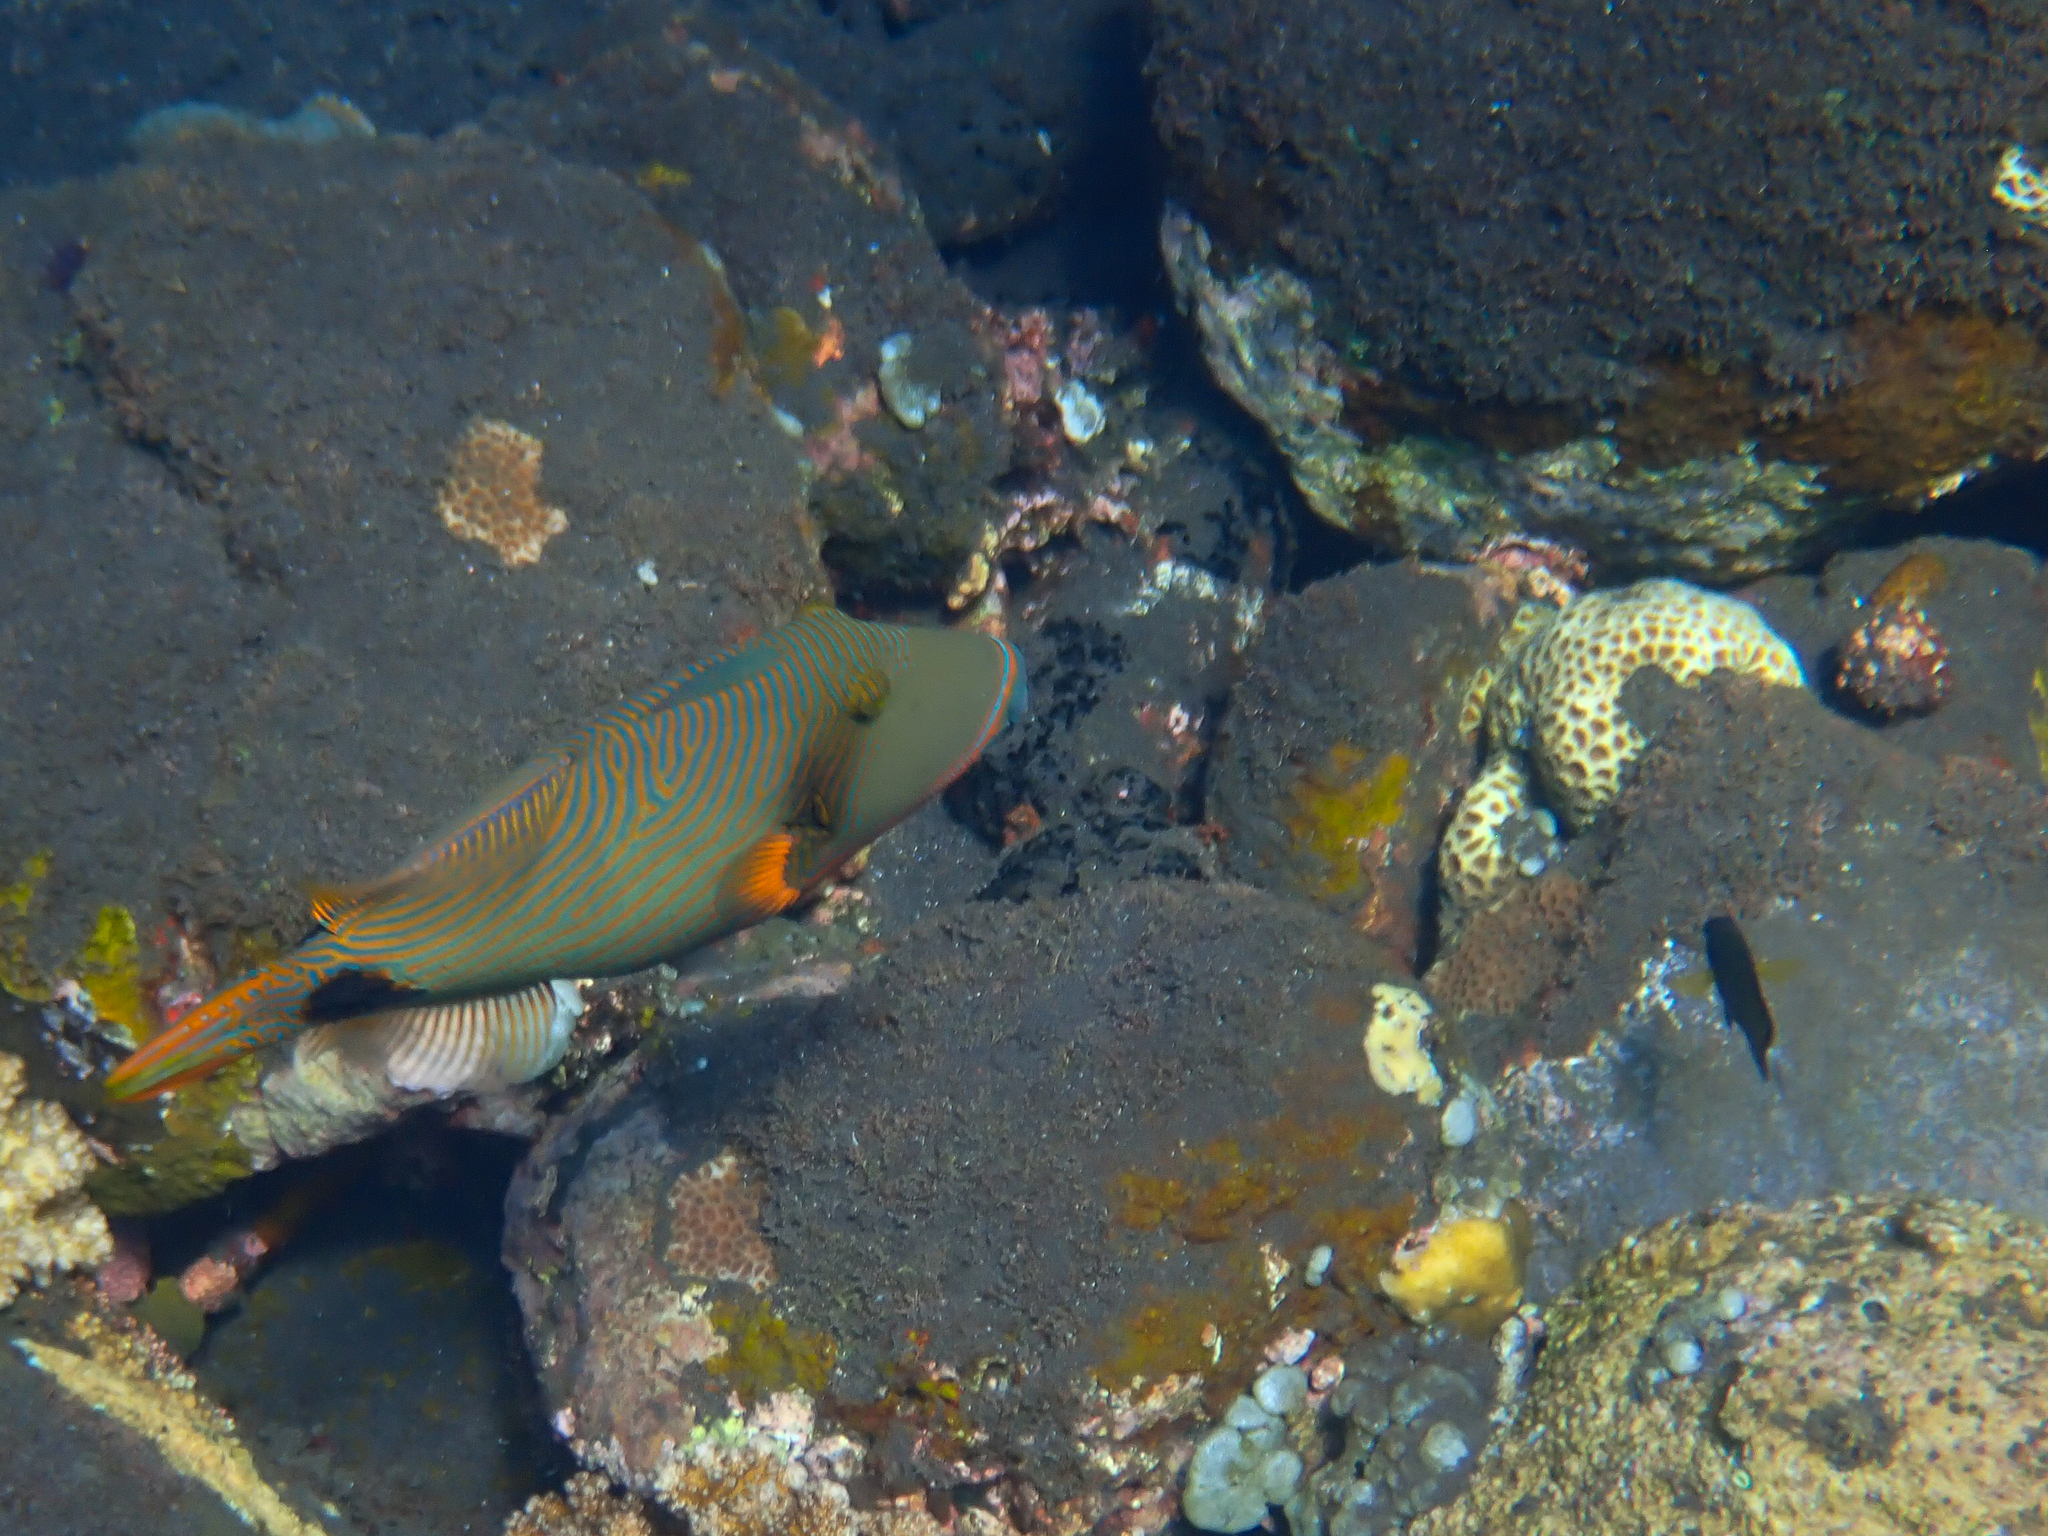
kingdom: Animalia
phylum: Chordata
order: Tetraodontiformes
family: Balistidae
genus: Balistapus
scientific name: Balistapus undulatus
